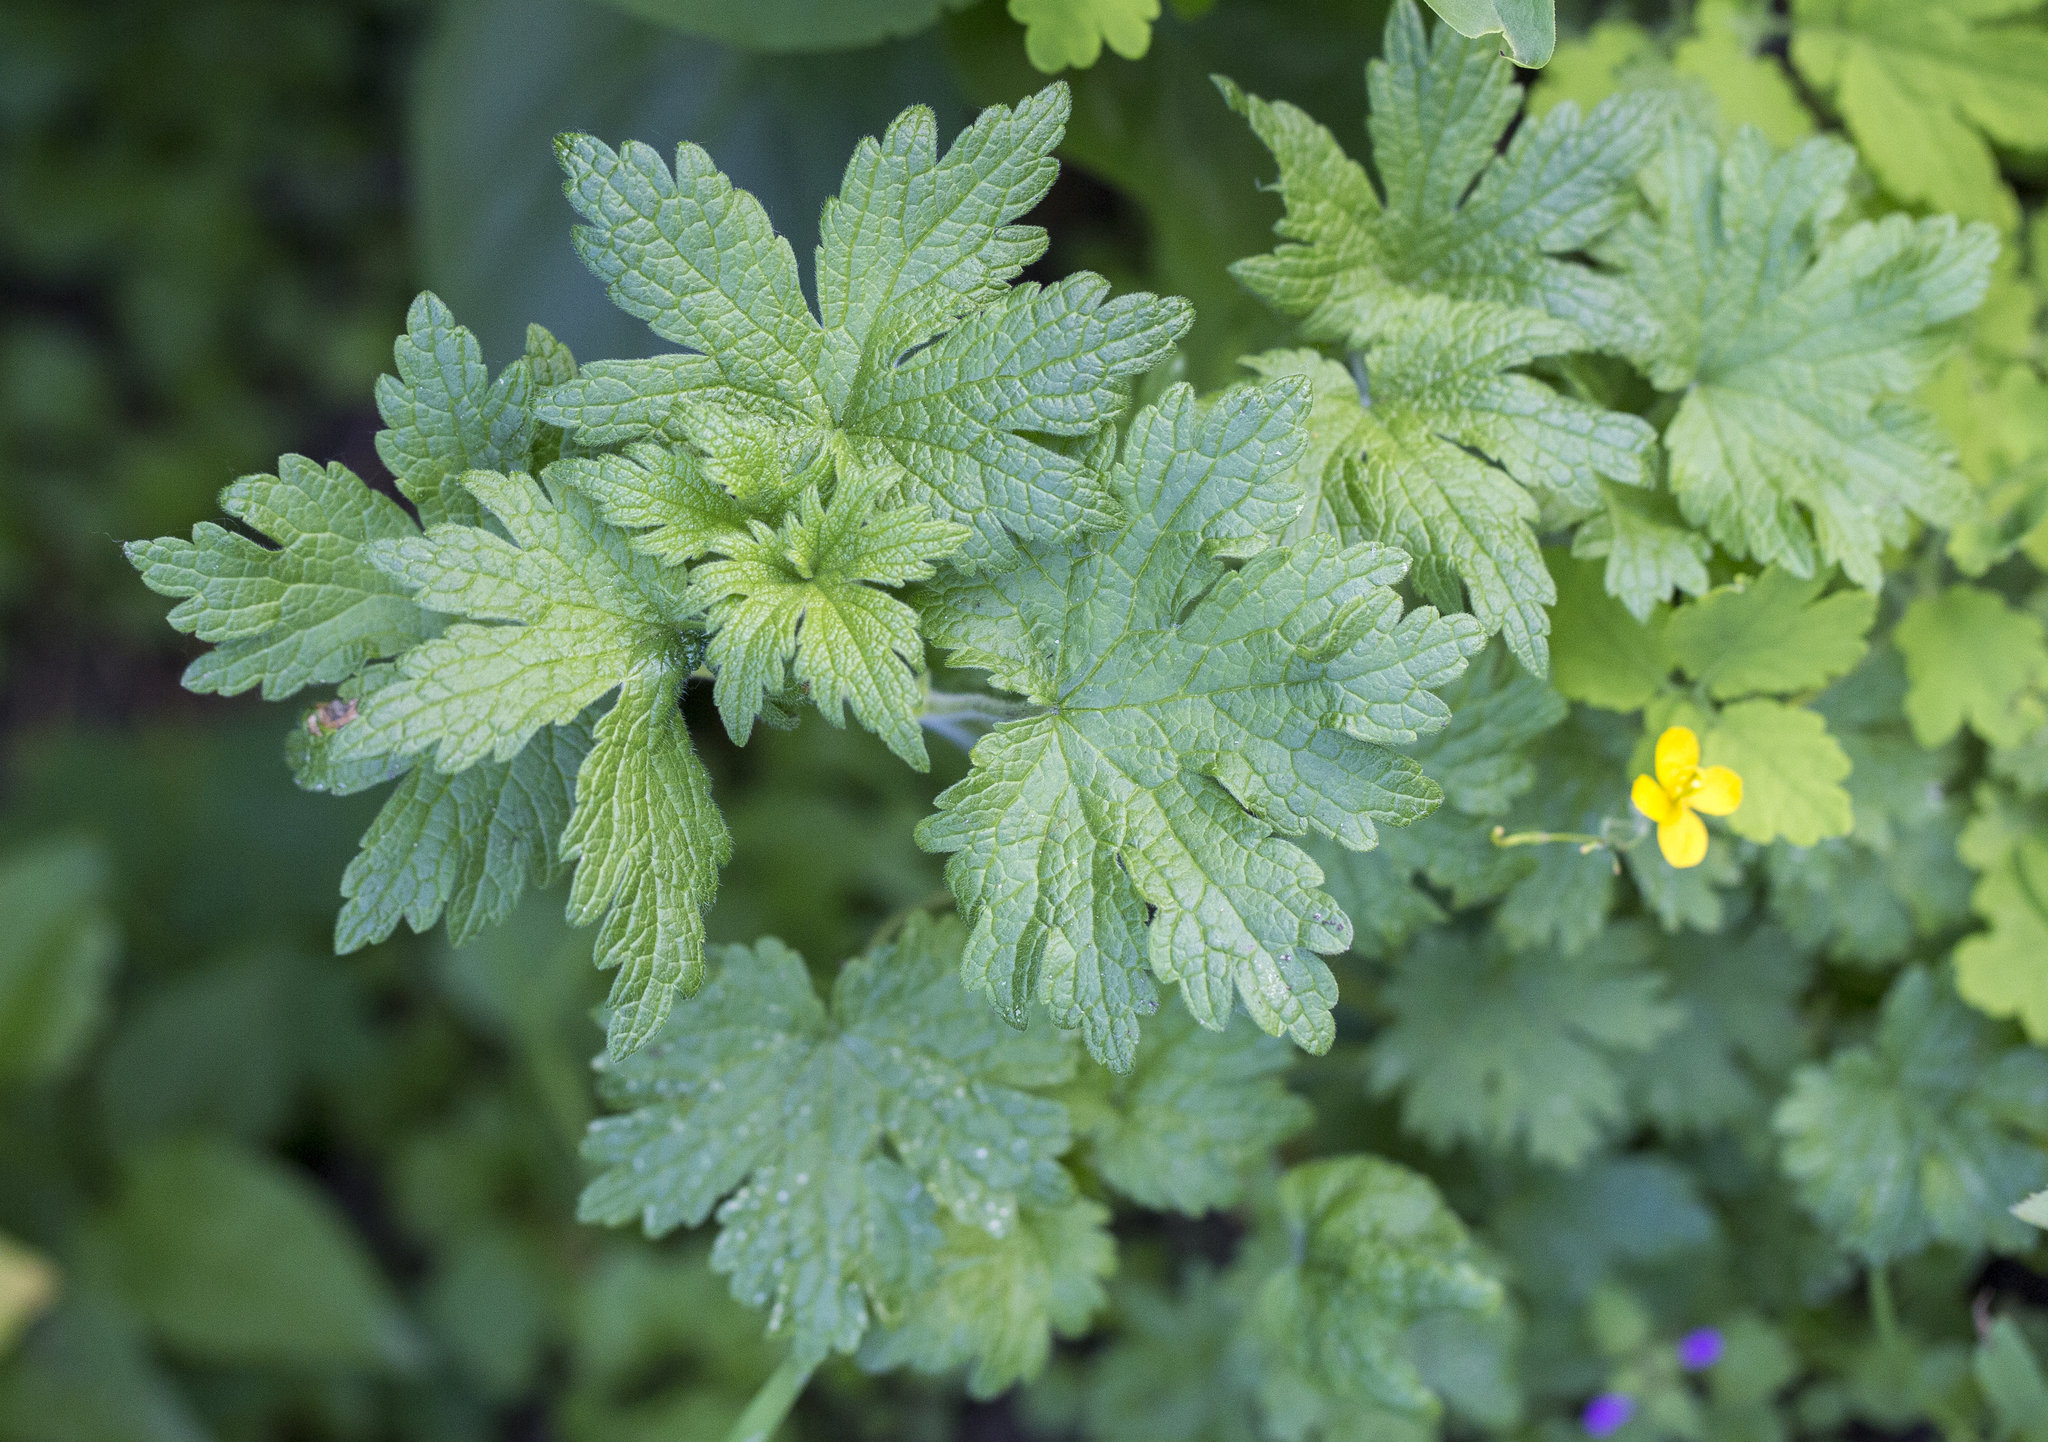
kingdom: Plantae
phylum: Tracheophyta
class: Magnoliopsida
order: Lamiales
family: Lamiaceae
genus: Leonurus
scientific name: Leonurus quinquelobatus
